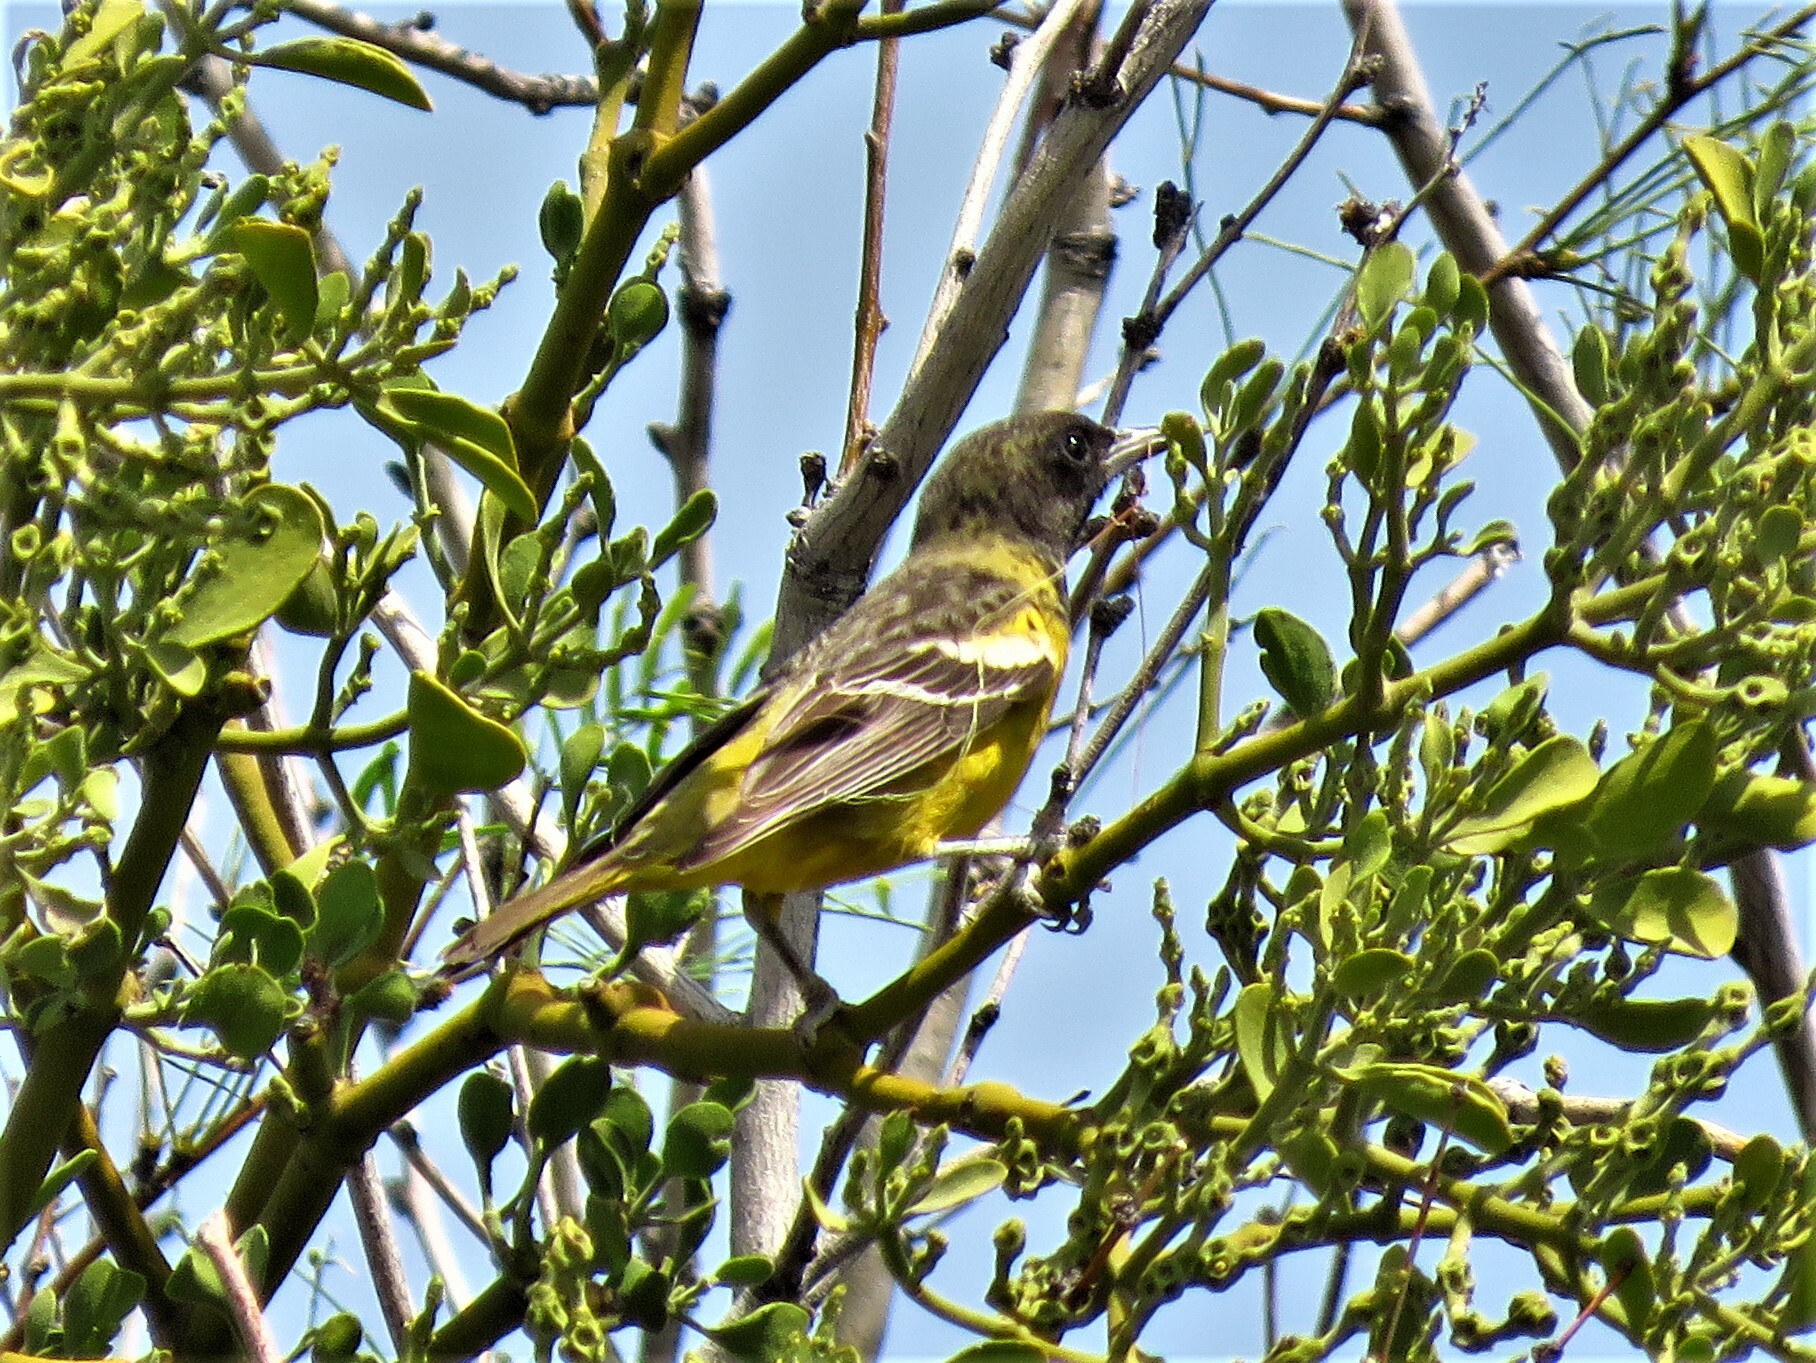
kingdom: Animalia
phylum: Chordata
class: Aves
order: Passeriformes
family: Icteridae
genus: Icterus
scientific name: Icterus parisorum
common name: Scott's oriole
